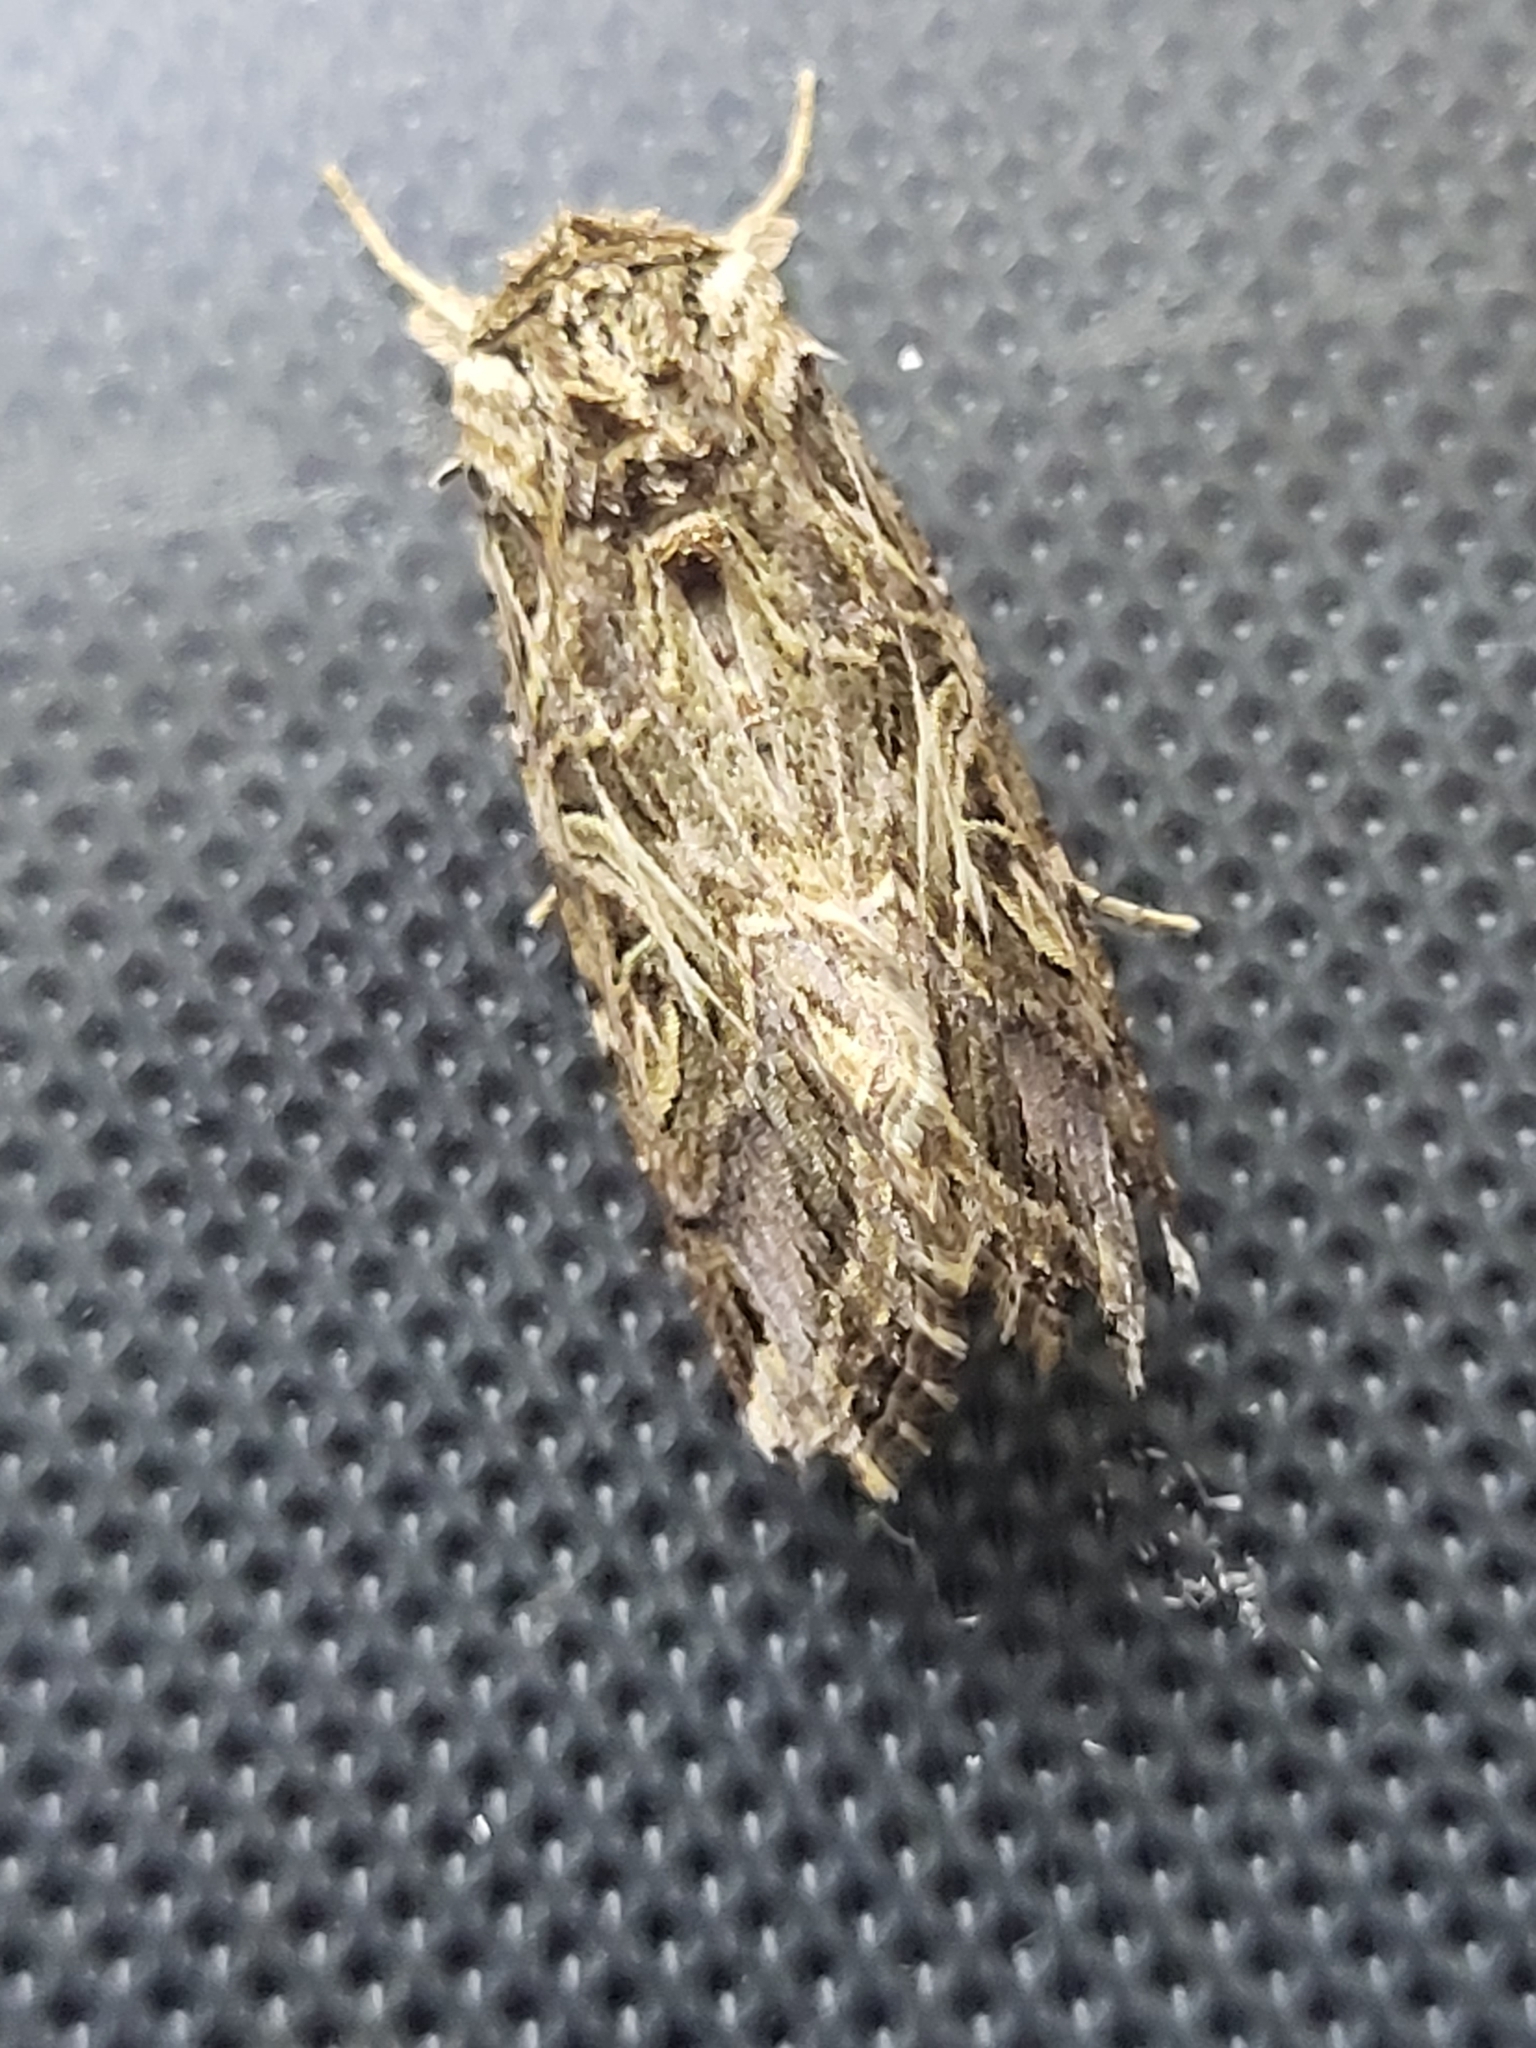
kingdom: Animalia
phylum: Arthropoda
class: Insecta
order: Lepidoptera
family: Noctuidae
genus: Spodoptera
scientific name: Spodoptera litura
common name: Asian cotton leafworm
